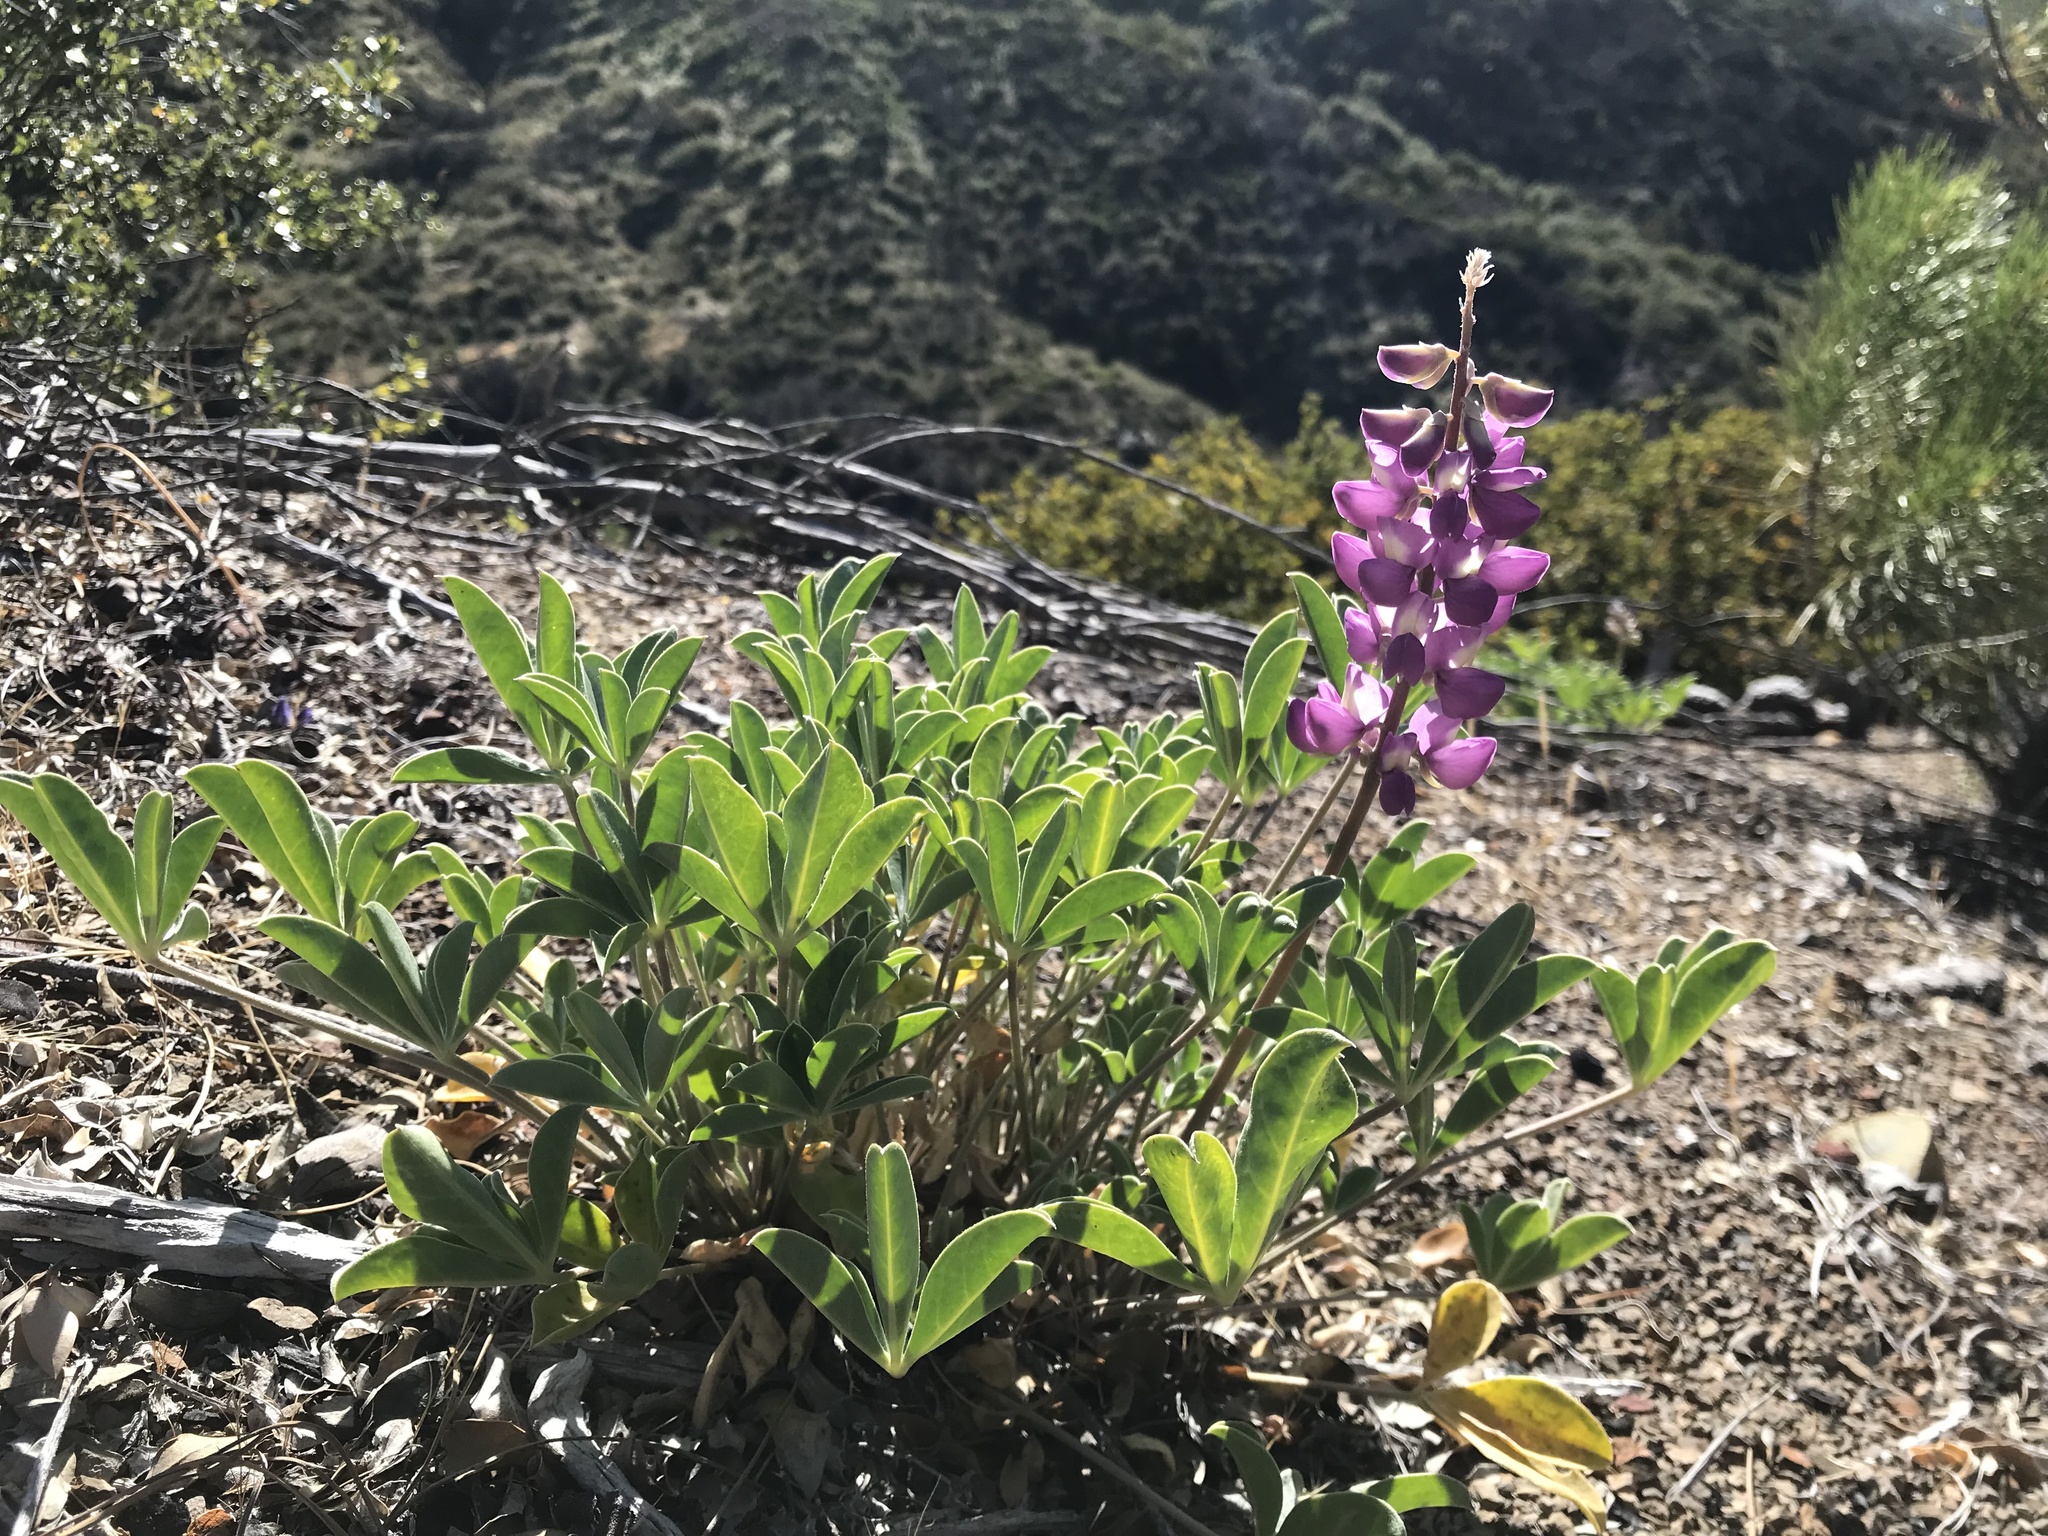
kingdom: Plantae
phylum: Tracheophyta
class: Magnoliopsida
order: Fabales
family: Fabaceae
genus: Lupinus
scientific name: Lupinus cervinus
